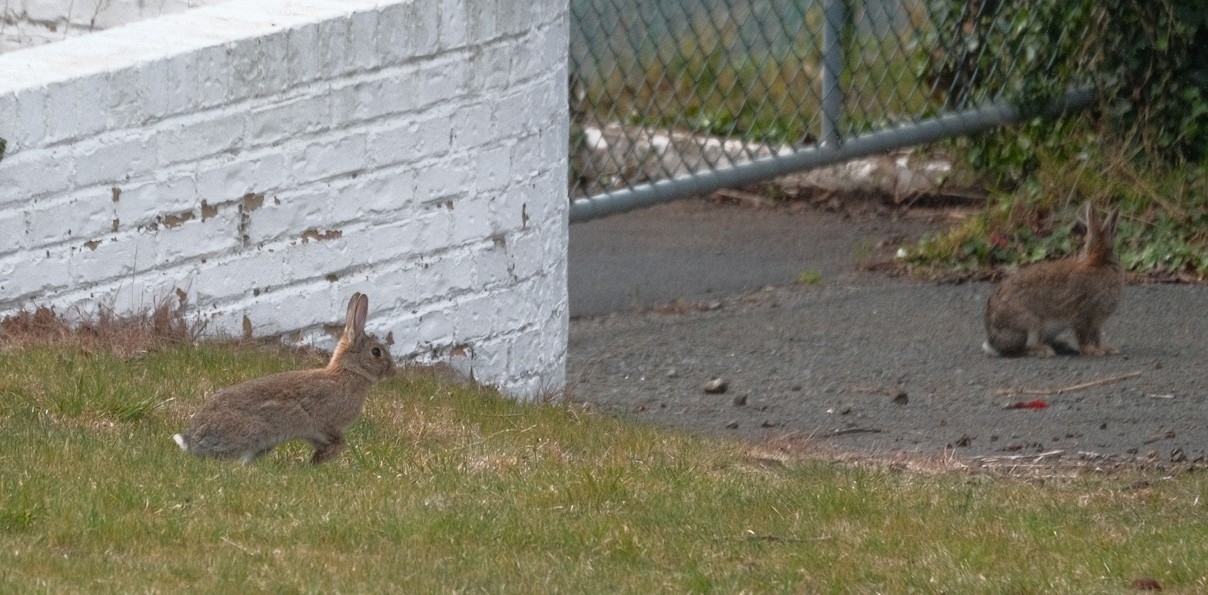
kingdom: Animalia
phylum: Chordata
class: Mammalia
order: Lagomorpha
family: Leporidae
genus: Oryctolagus
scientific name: Oryctolagus cuniculus
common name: European rabbit
